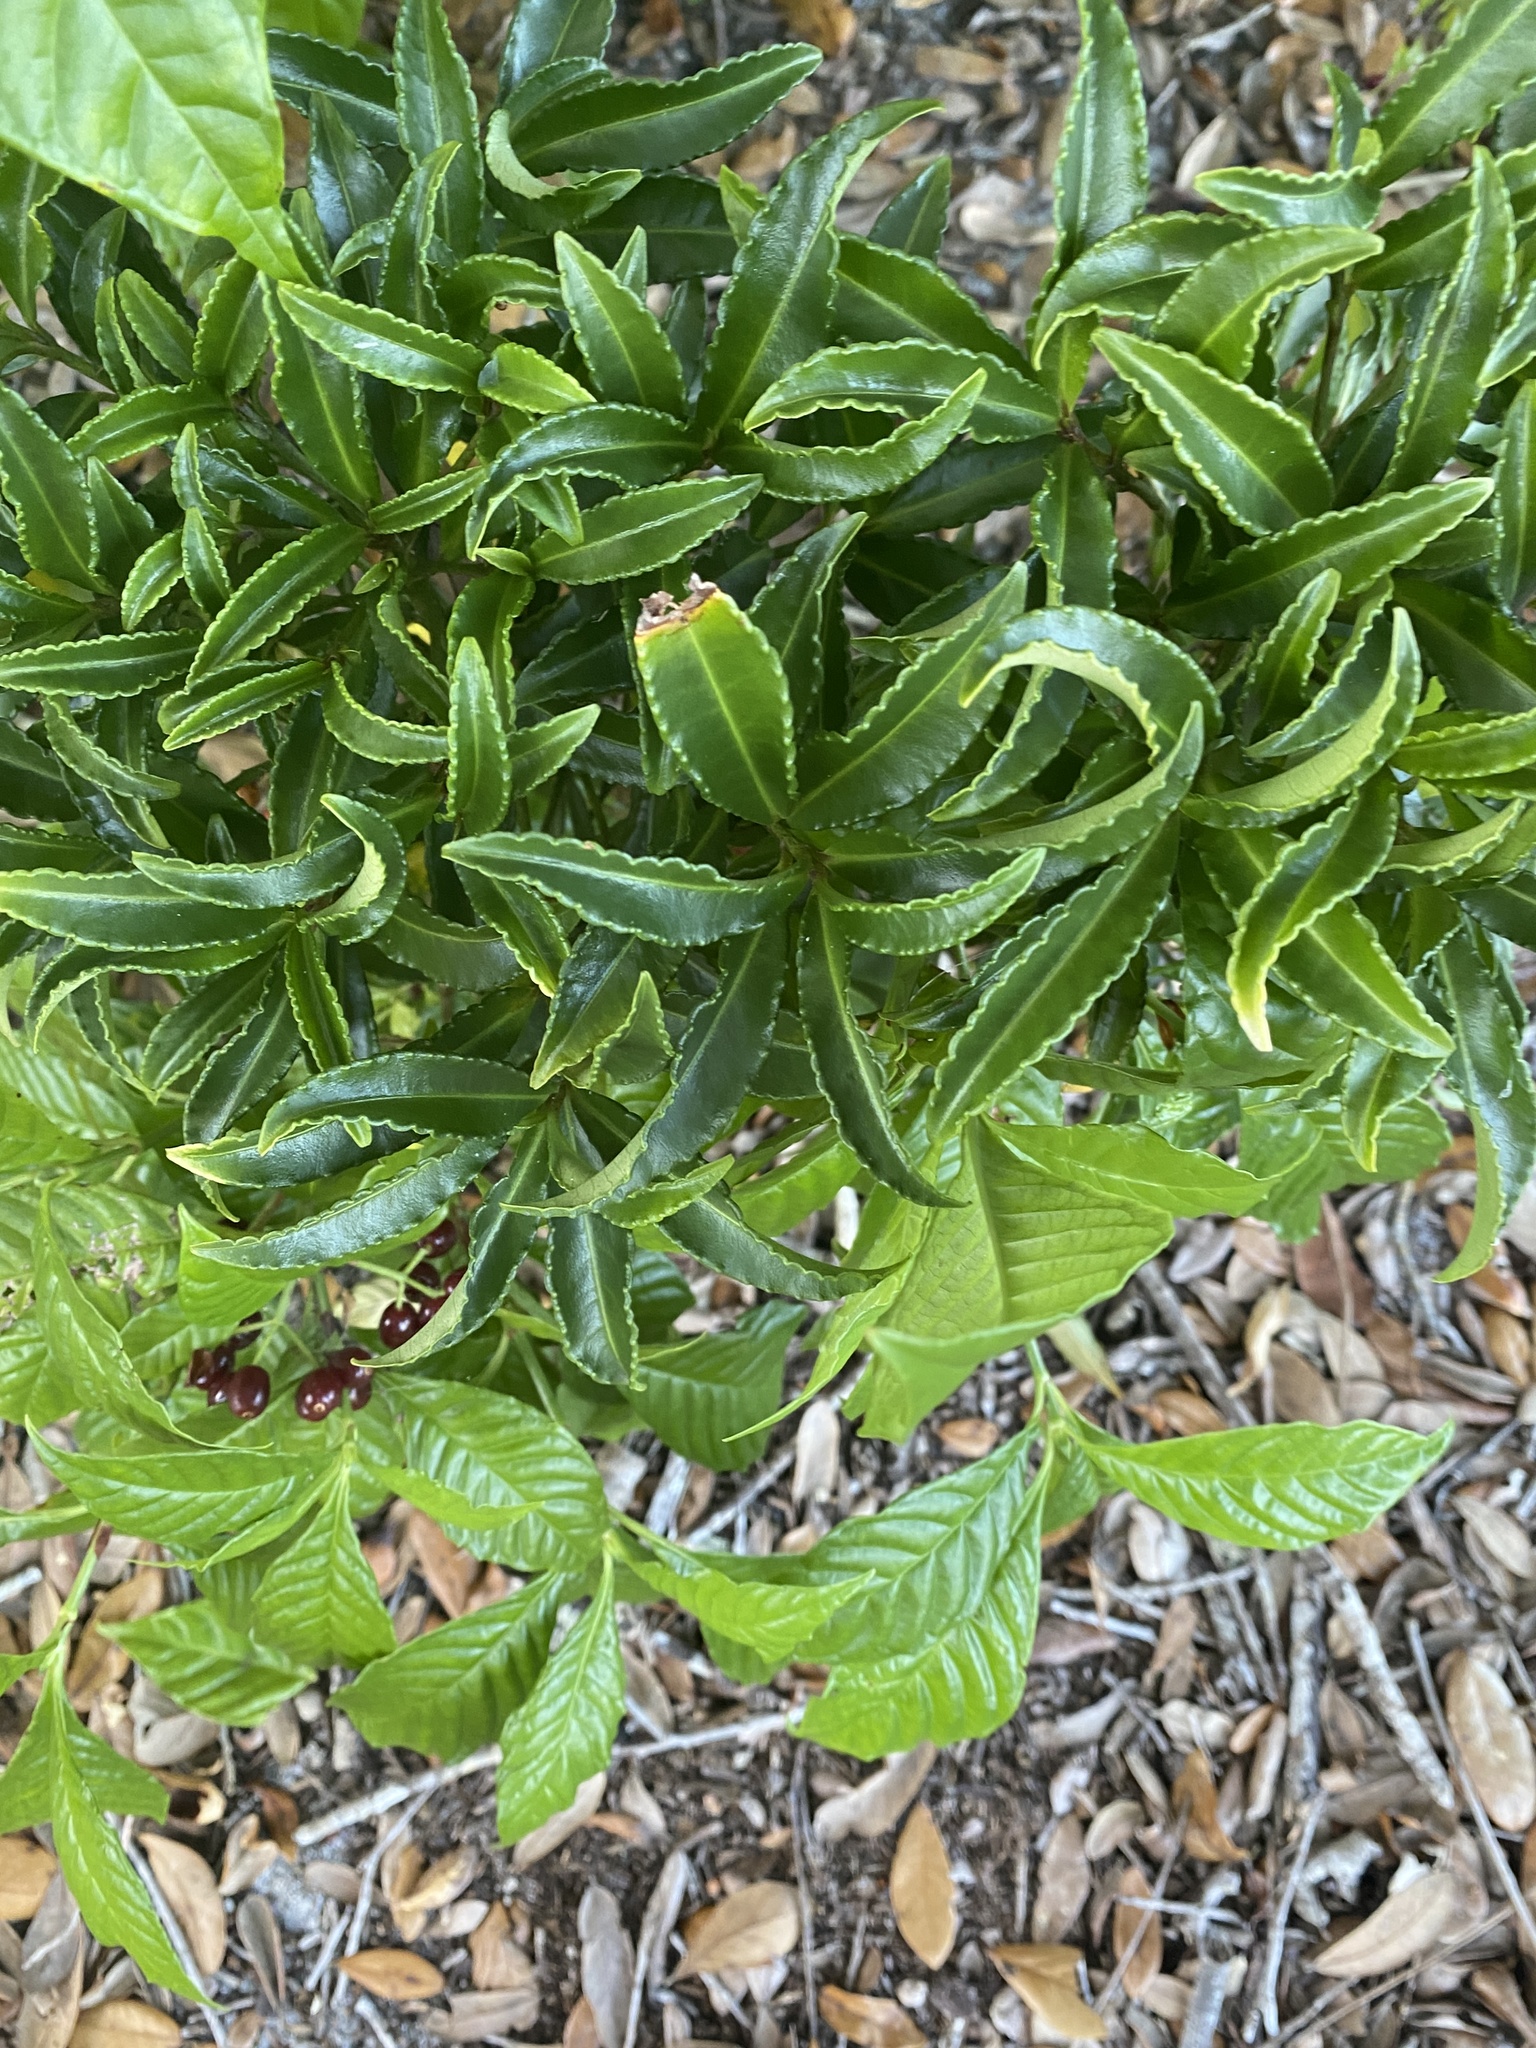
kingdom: Plantae
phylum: Tracheophyta
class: Magnoliopsida
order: Ericales
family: Primulaceae
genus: Ardisia
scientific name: Ardisia crenata
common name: Hen's eyes
